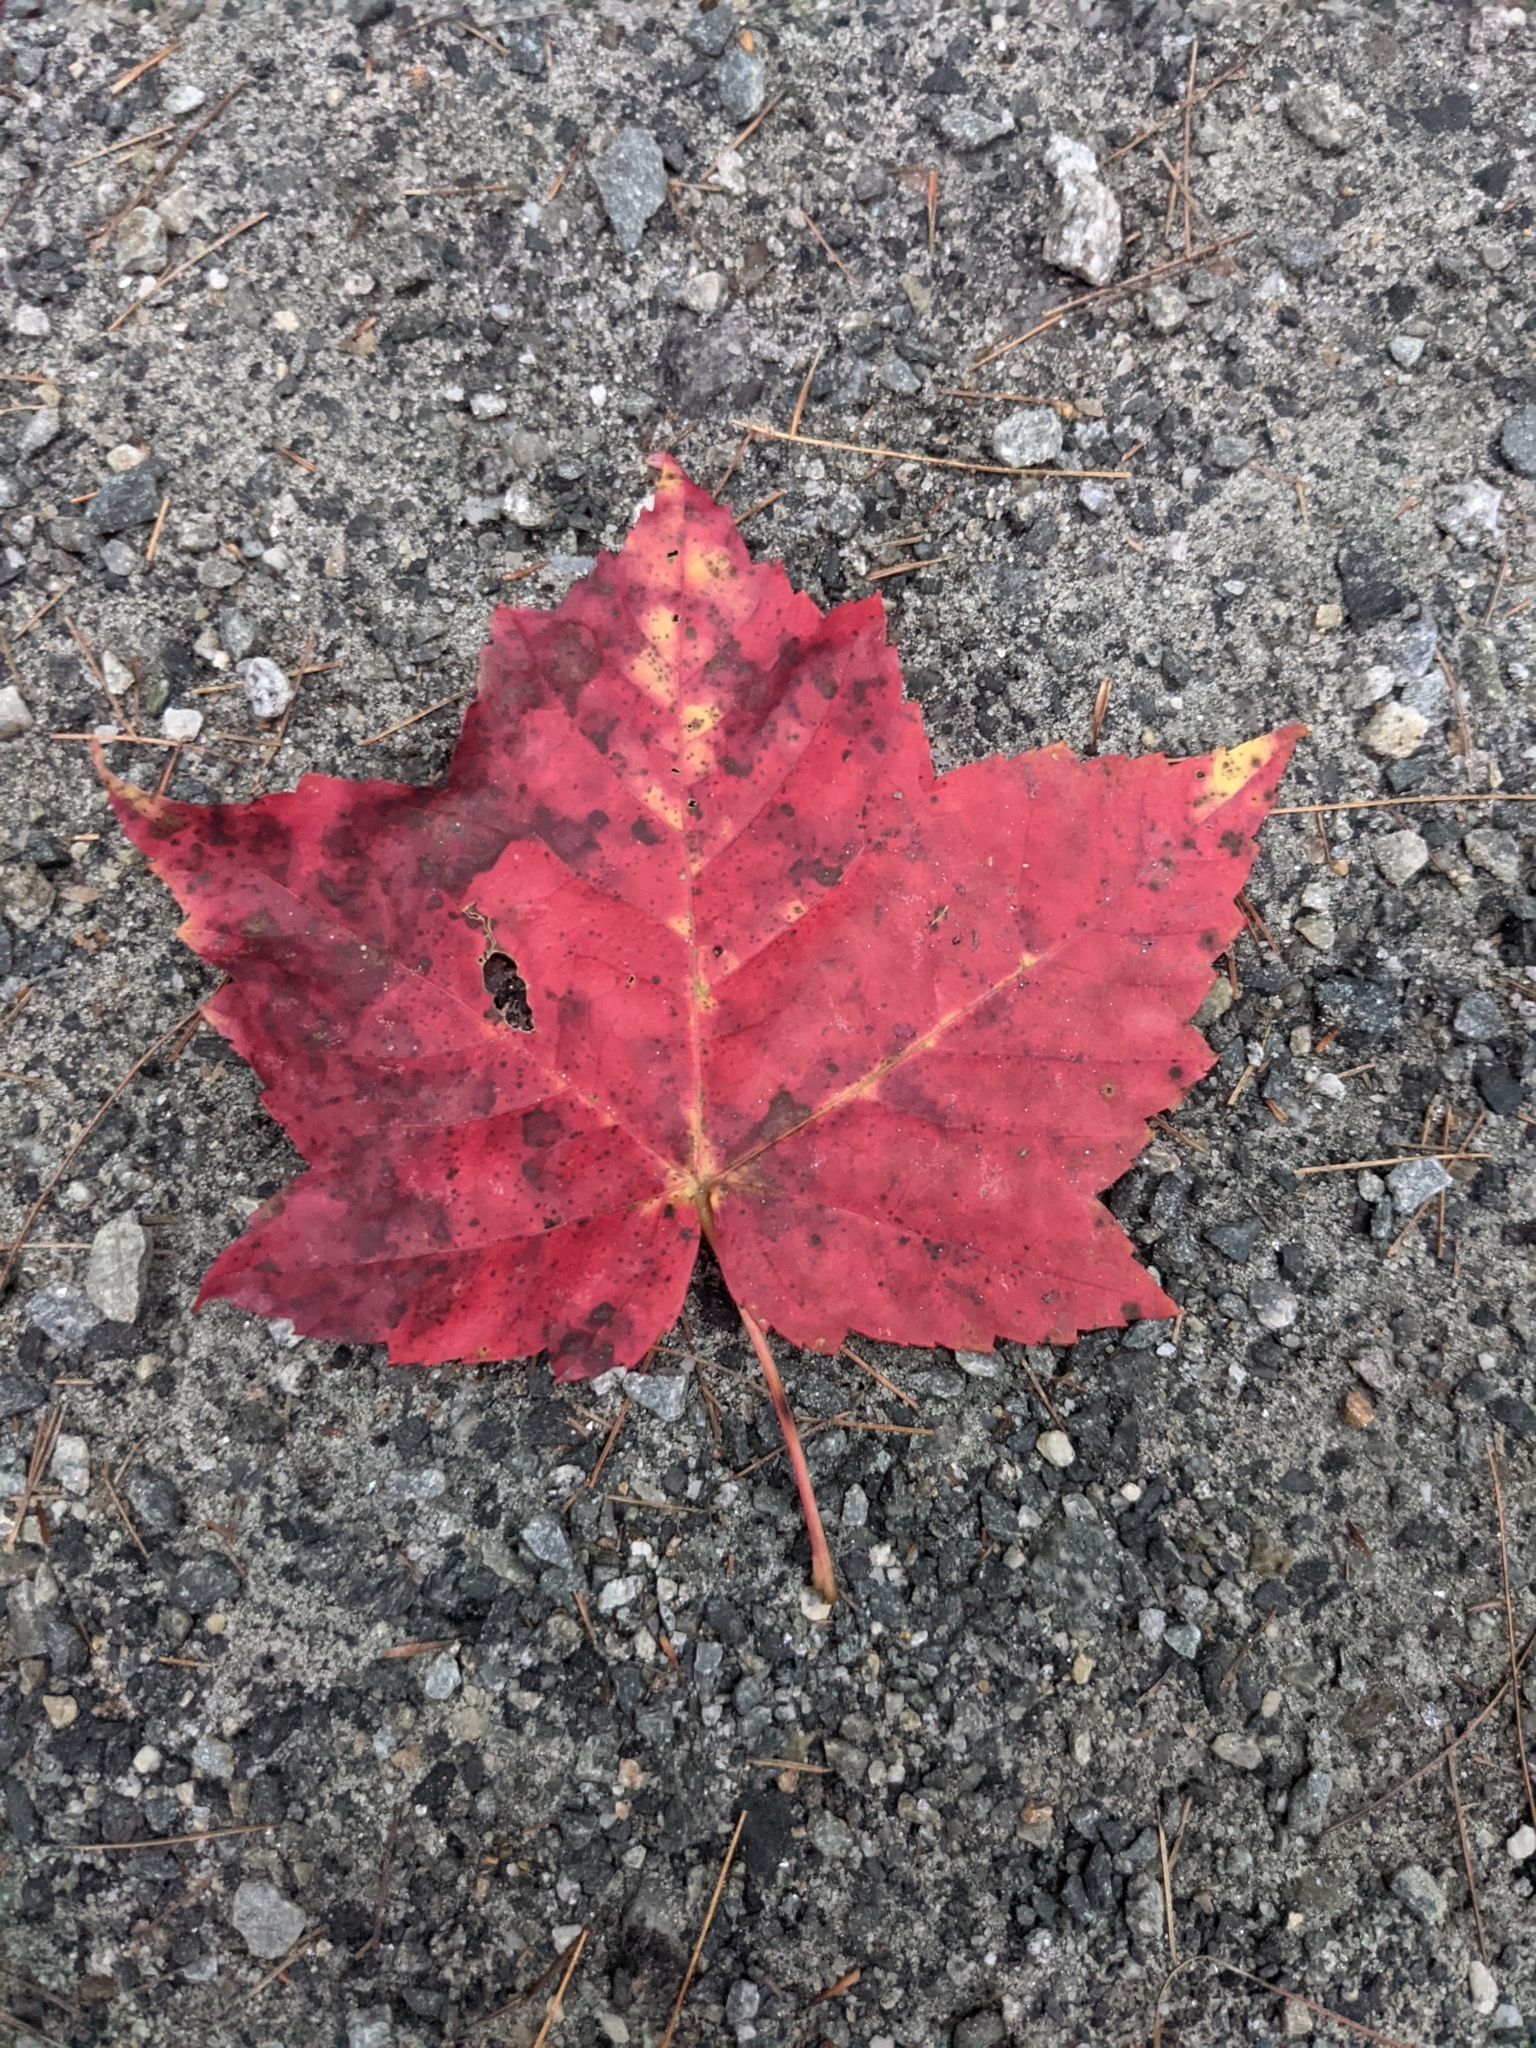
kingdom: Plantae
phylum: Tracheophyta
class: Magnoliopsida
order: Sapindales
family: Sapindaceae
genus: Acer
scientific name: Acer rubrum
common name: Red maple
